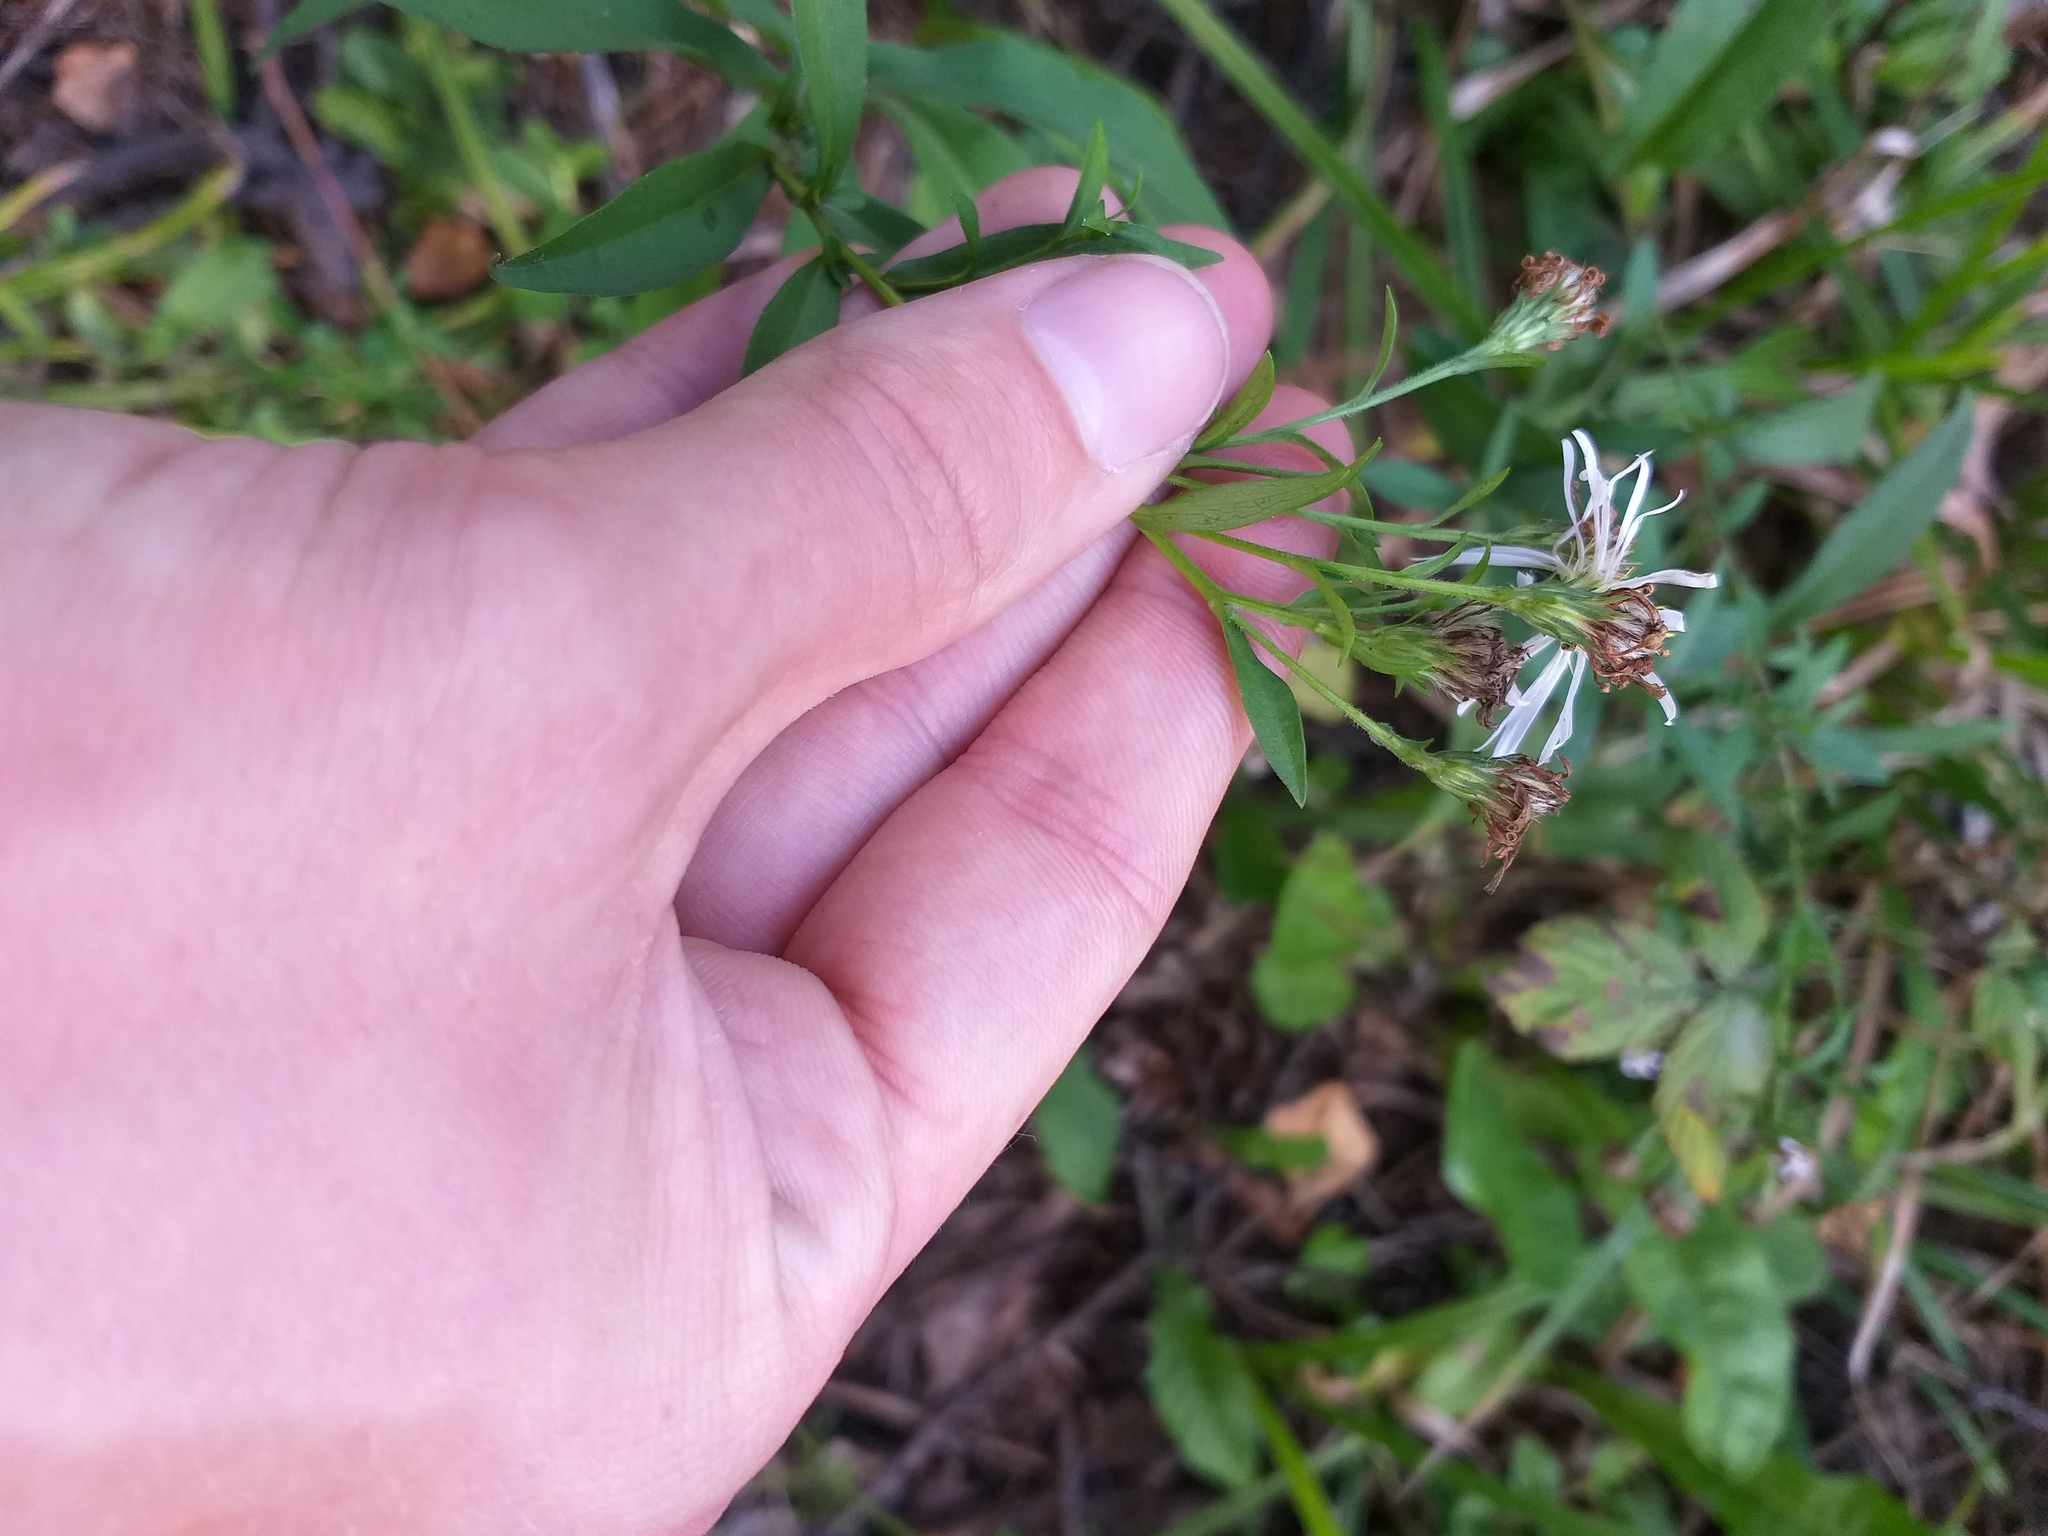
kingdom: Plantae
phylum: Tracheophyta
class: Magnoliopsida
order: Asterales
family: Asteraceae
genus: Symphyotrichum
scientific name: Symphyotrichum salignum
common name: Common michaelmas daisy
